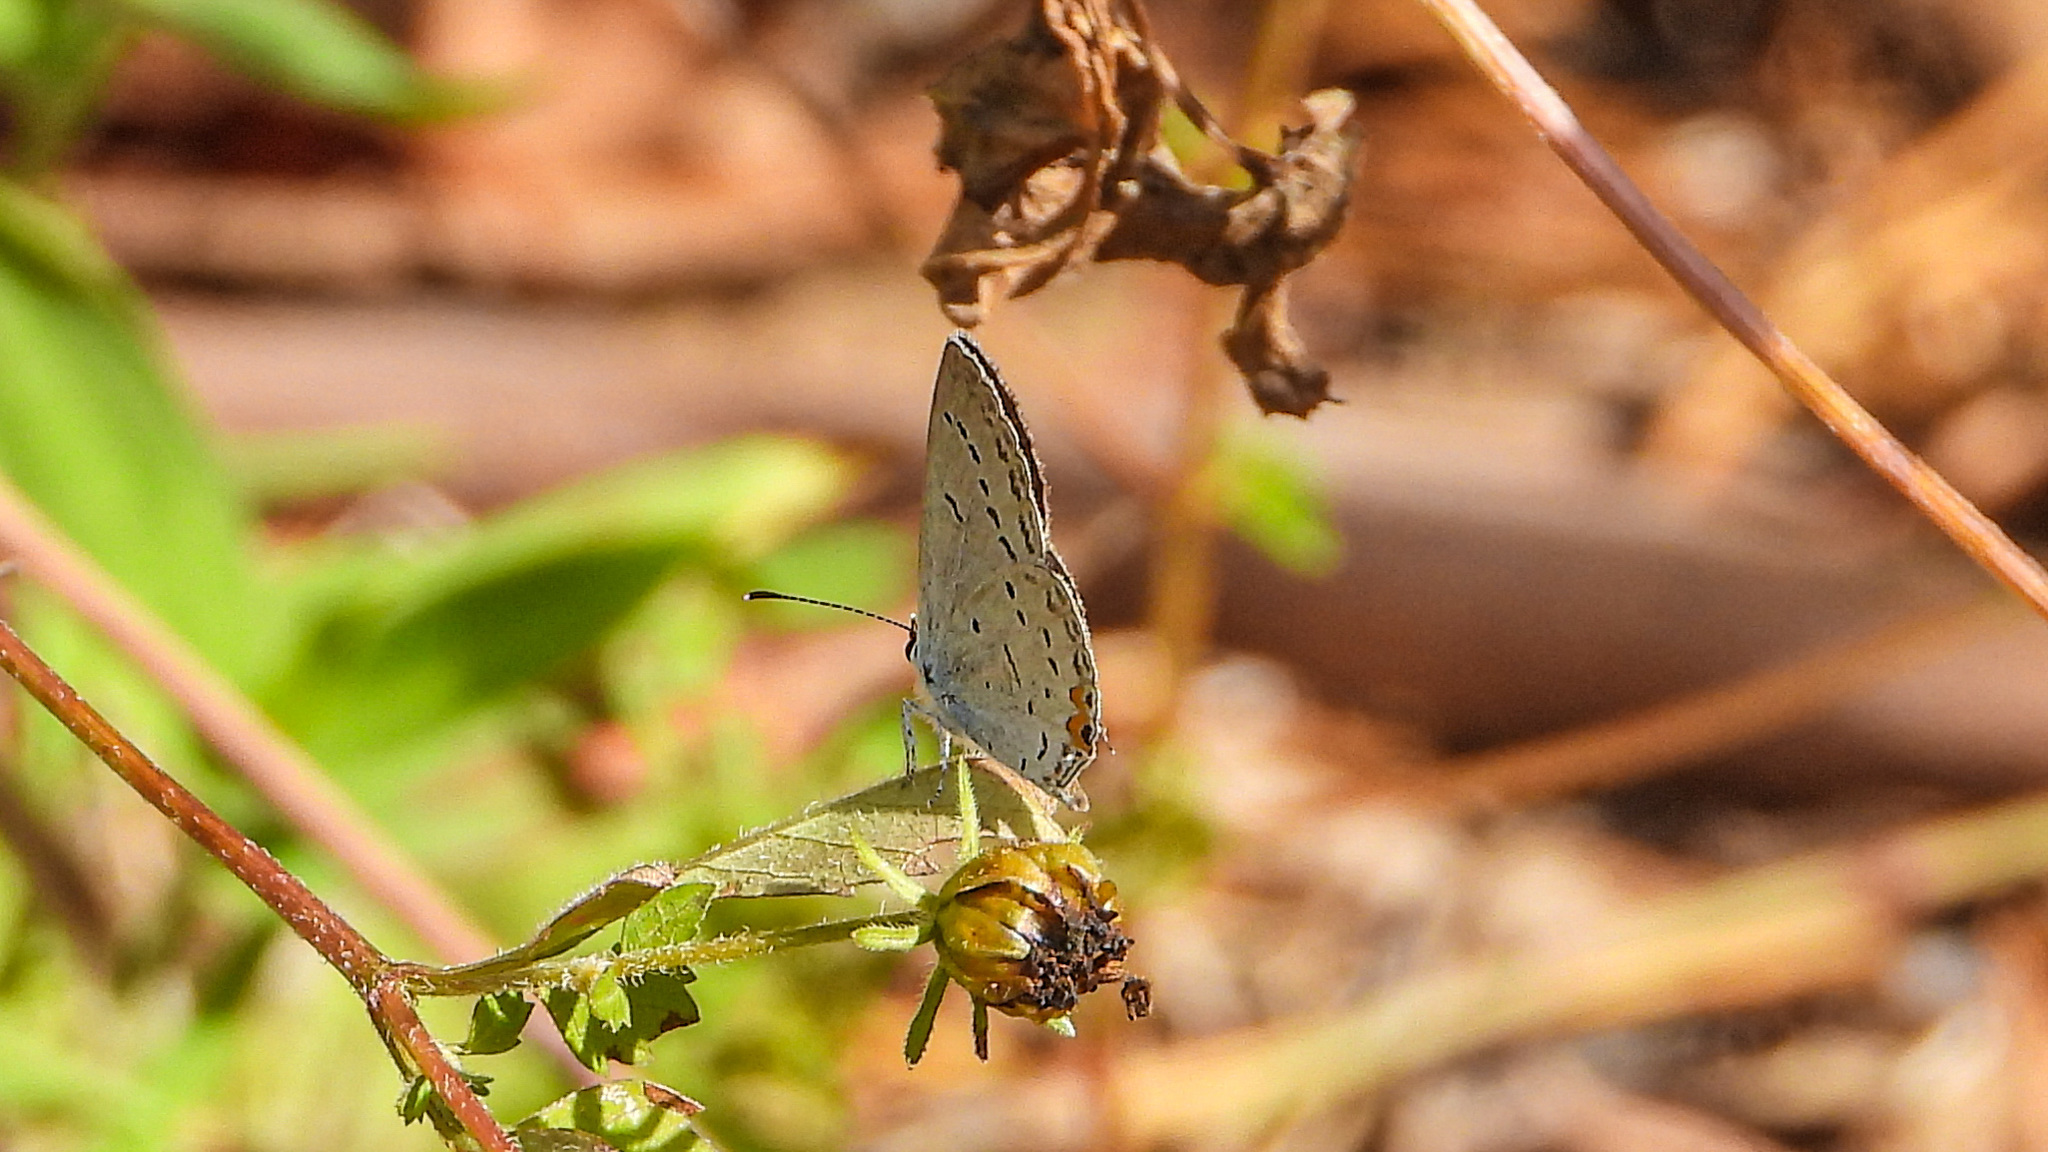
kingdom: Animalia
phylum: Arthropoda
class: Insecta
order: Lepidoptera
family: Lycaenidae
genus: Elkalyce
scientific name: Elkalyce comyntas
